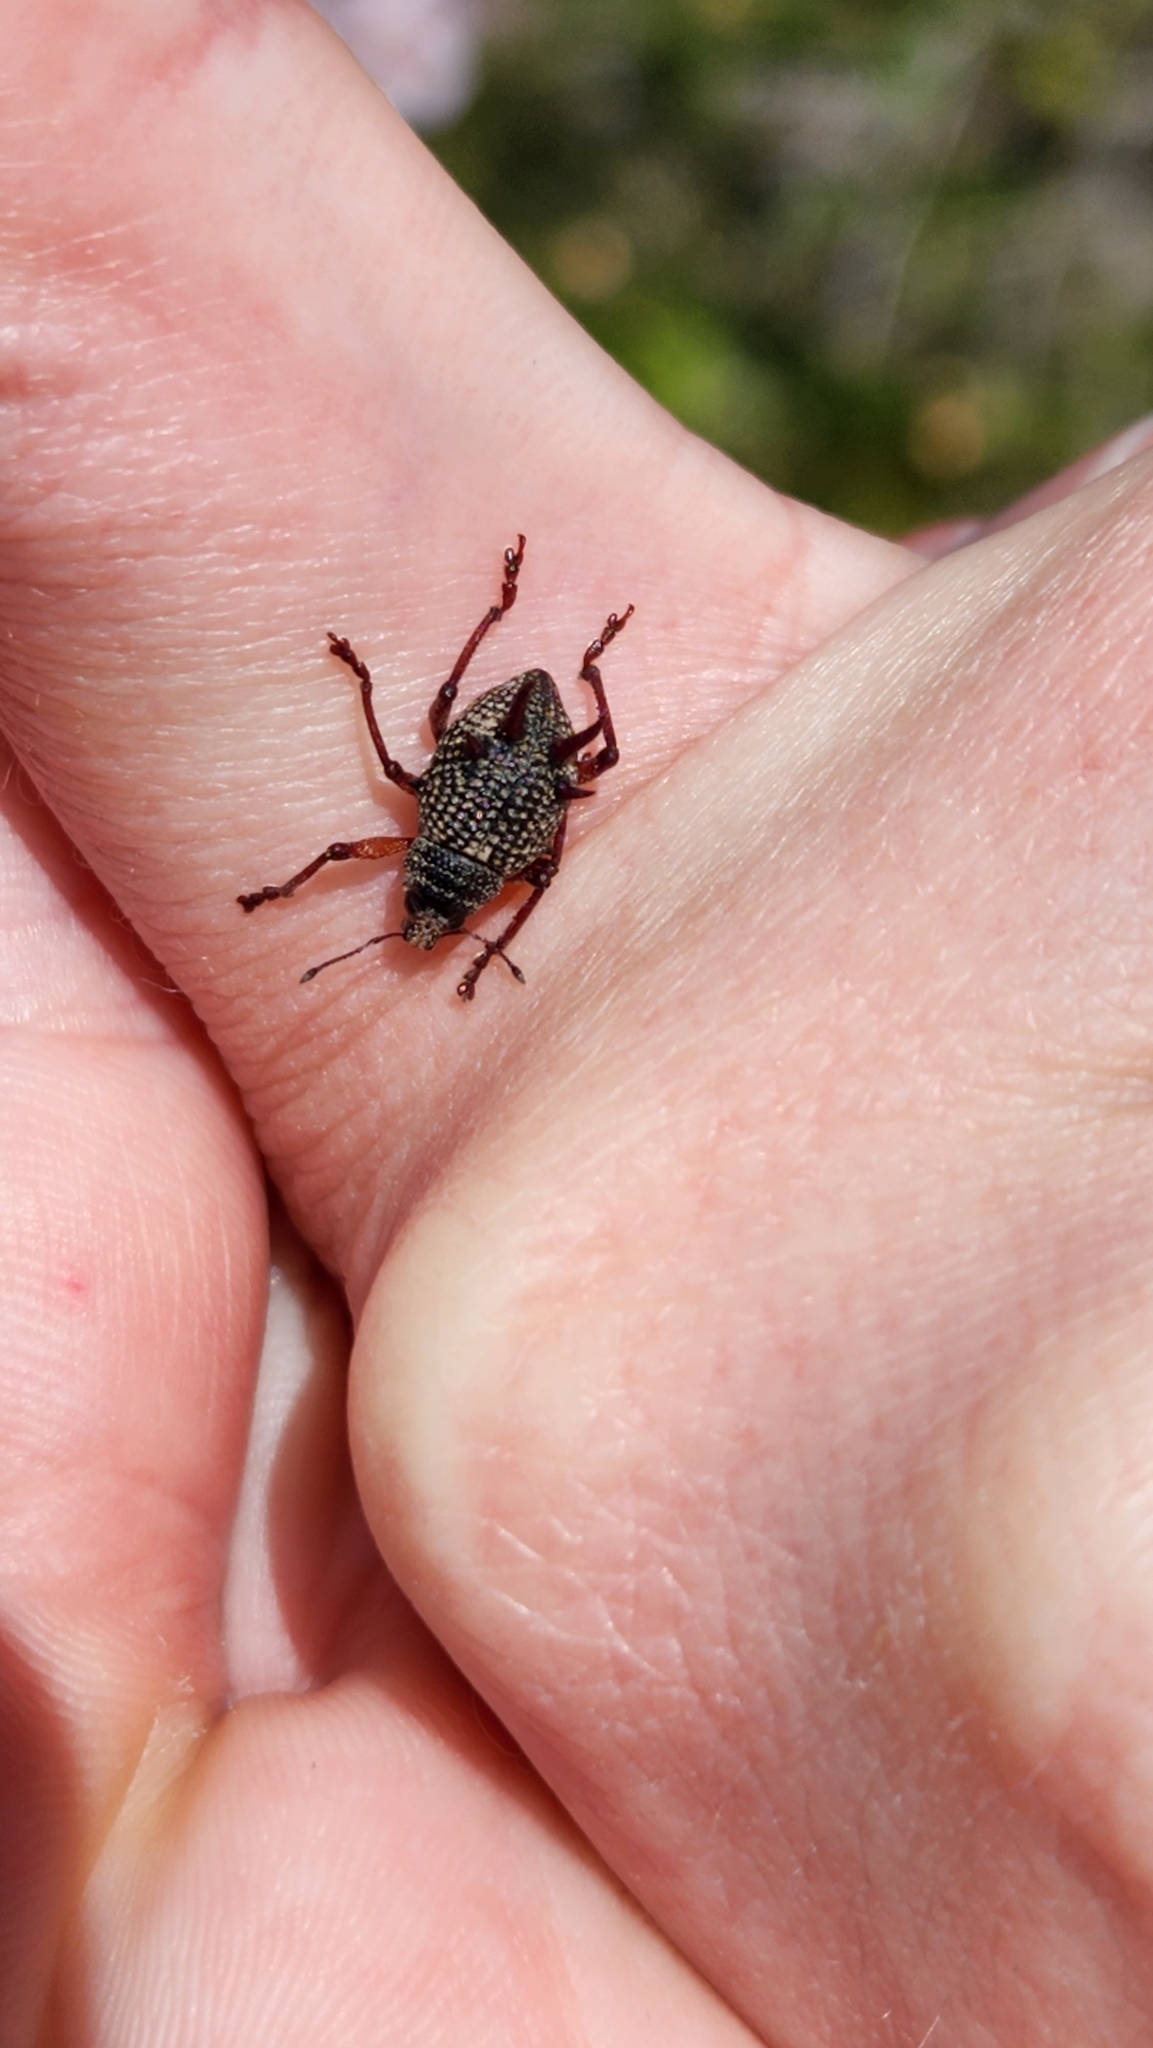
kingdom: Animalia
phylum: Arthropoda
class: Insecta
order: Coleoptera
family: Curculionidae
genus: Catasarcus
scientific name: Catasarcus spinipennis
